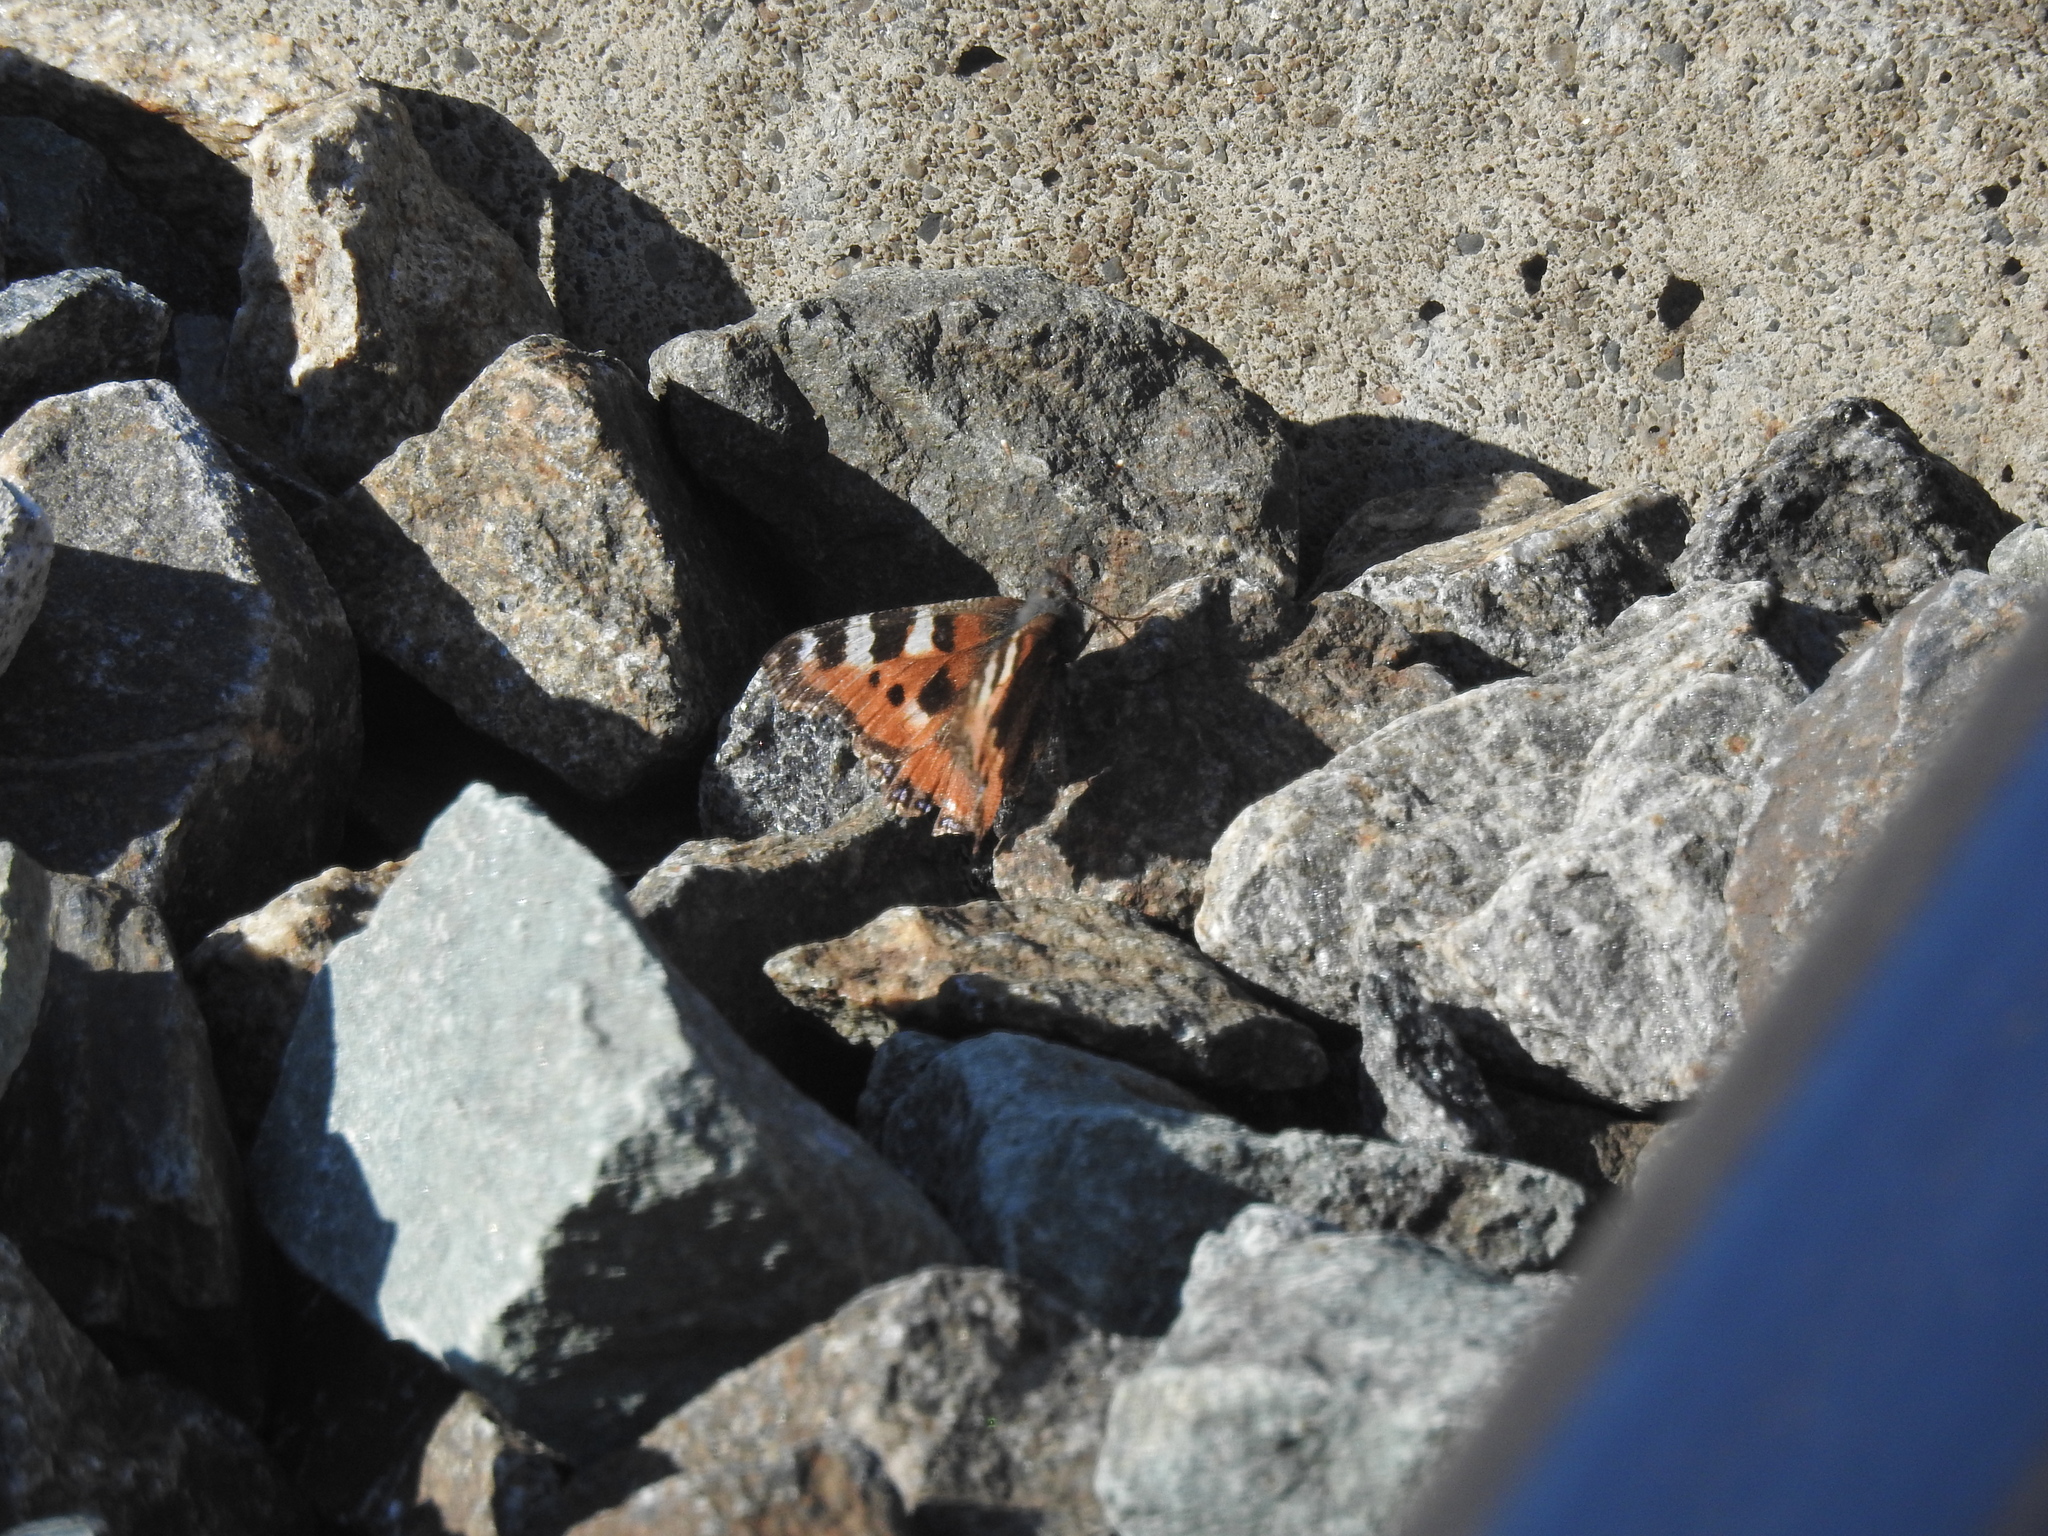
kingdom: Animalia
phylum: Arthropoda
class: Insecta
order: Lepidoptera
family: Nymphalidae
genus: Aglais
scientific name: Aglais urticae
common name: Small tortoiseshell
